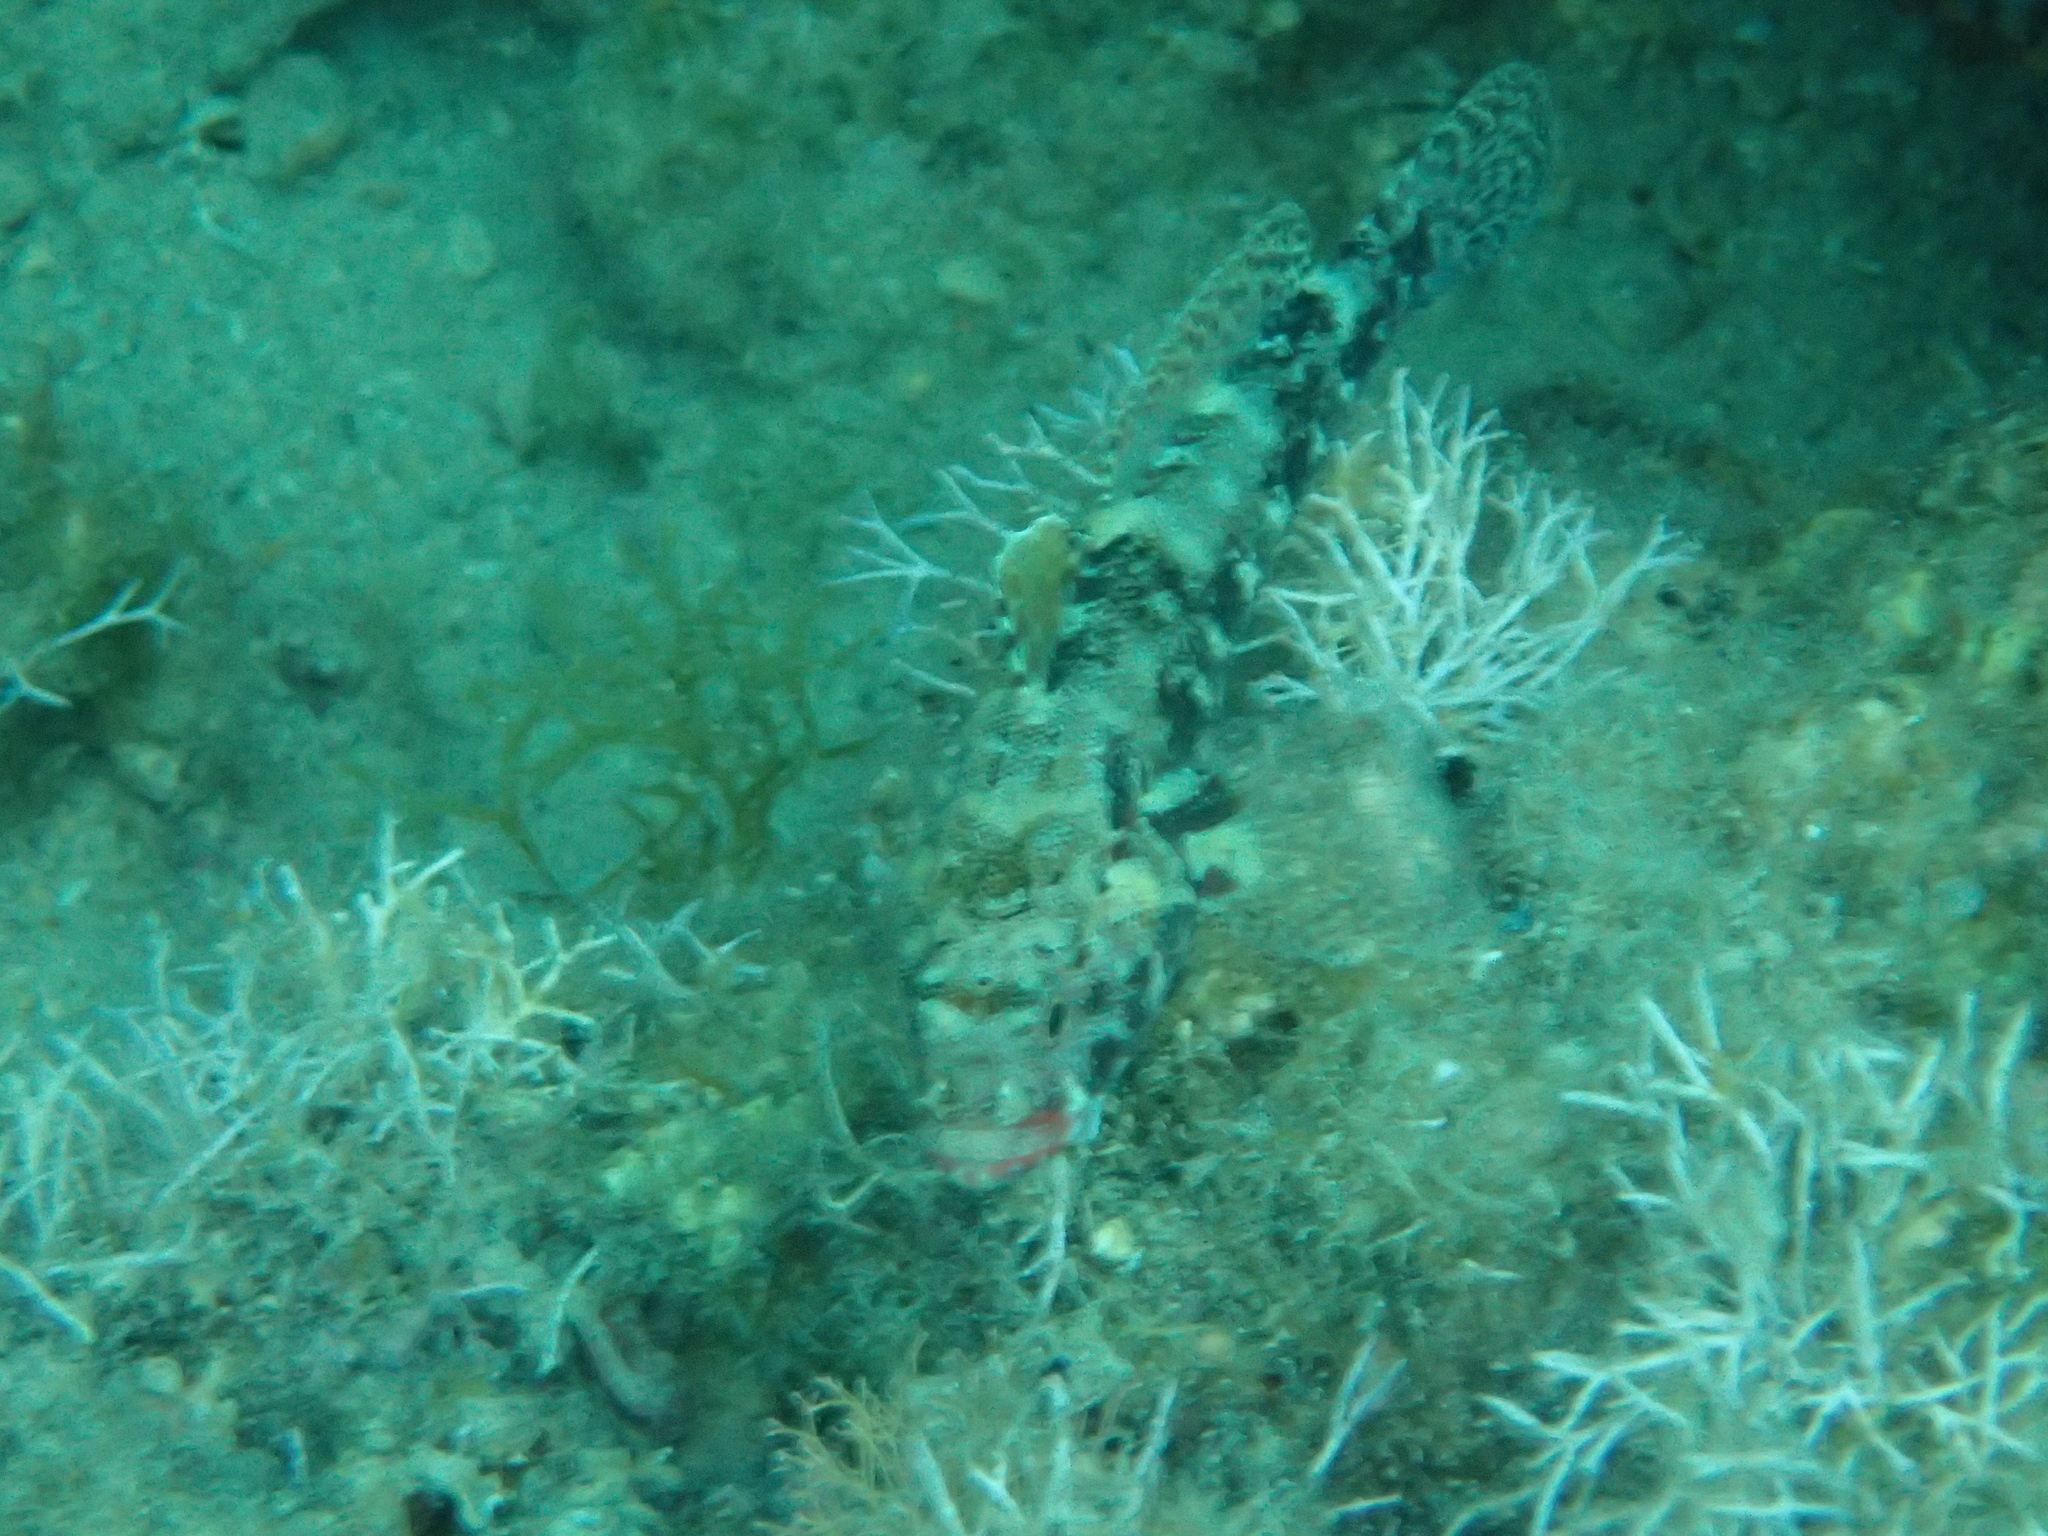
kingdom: Animalia
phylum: Chordata
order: Perciformes
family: Gobiidae
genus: Gobius
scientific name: Gobius cruentatus
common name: Red-mouthed goby
